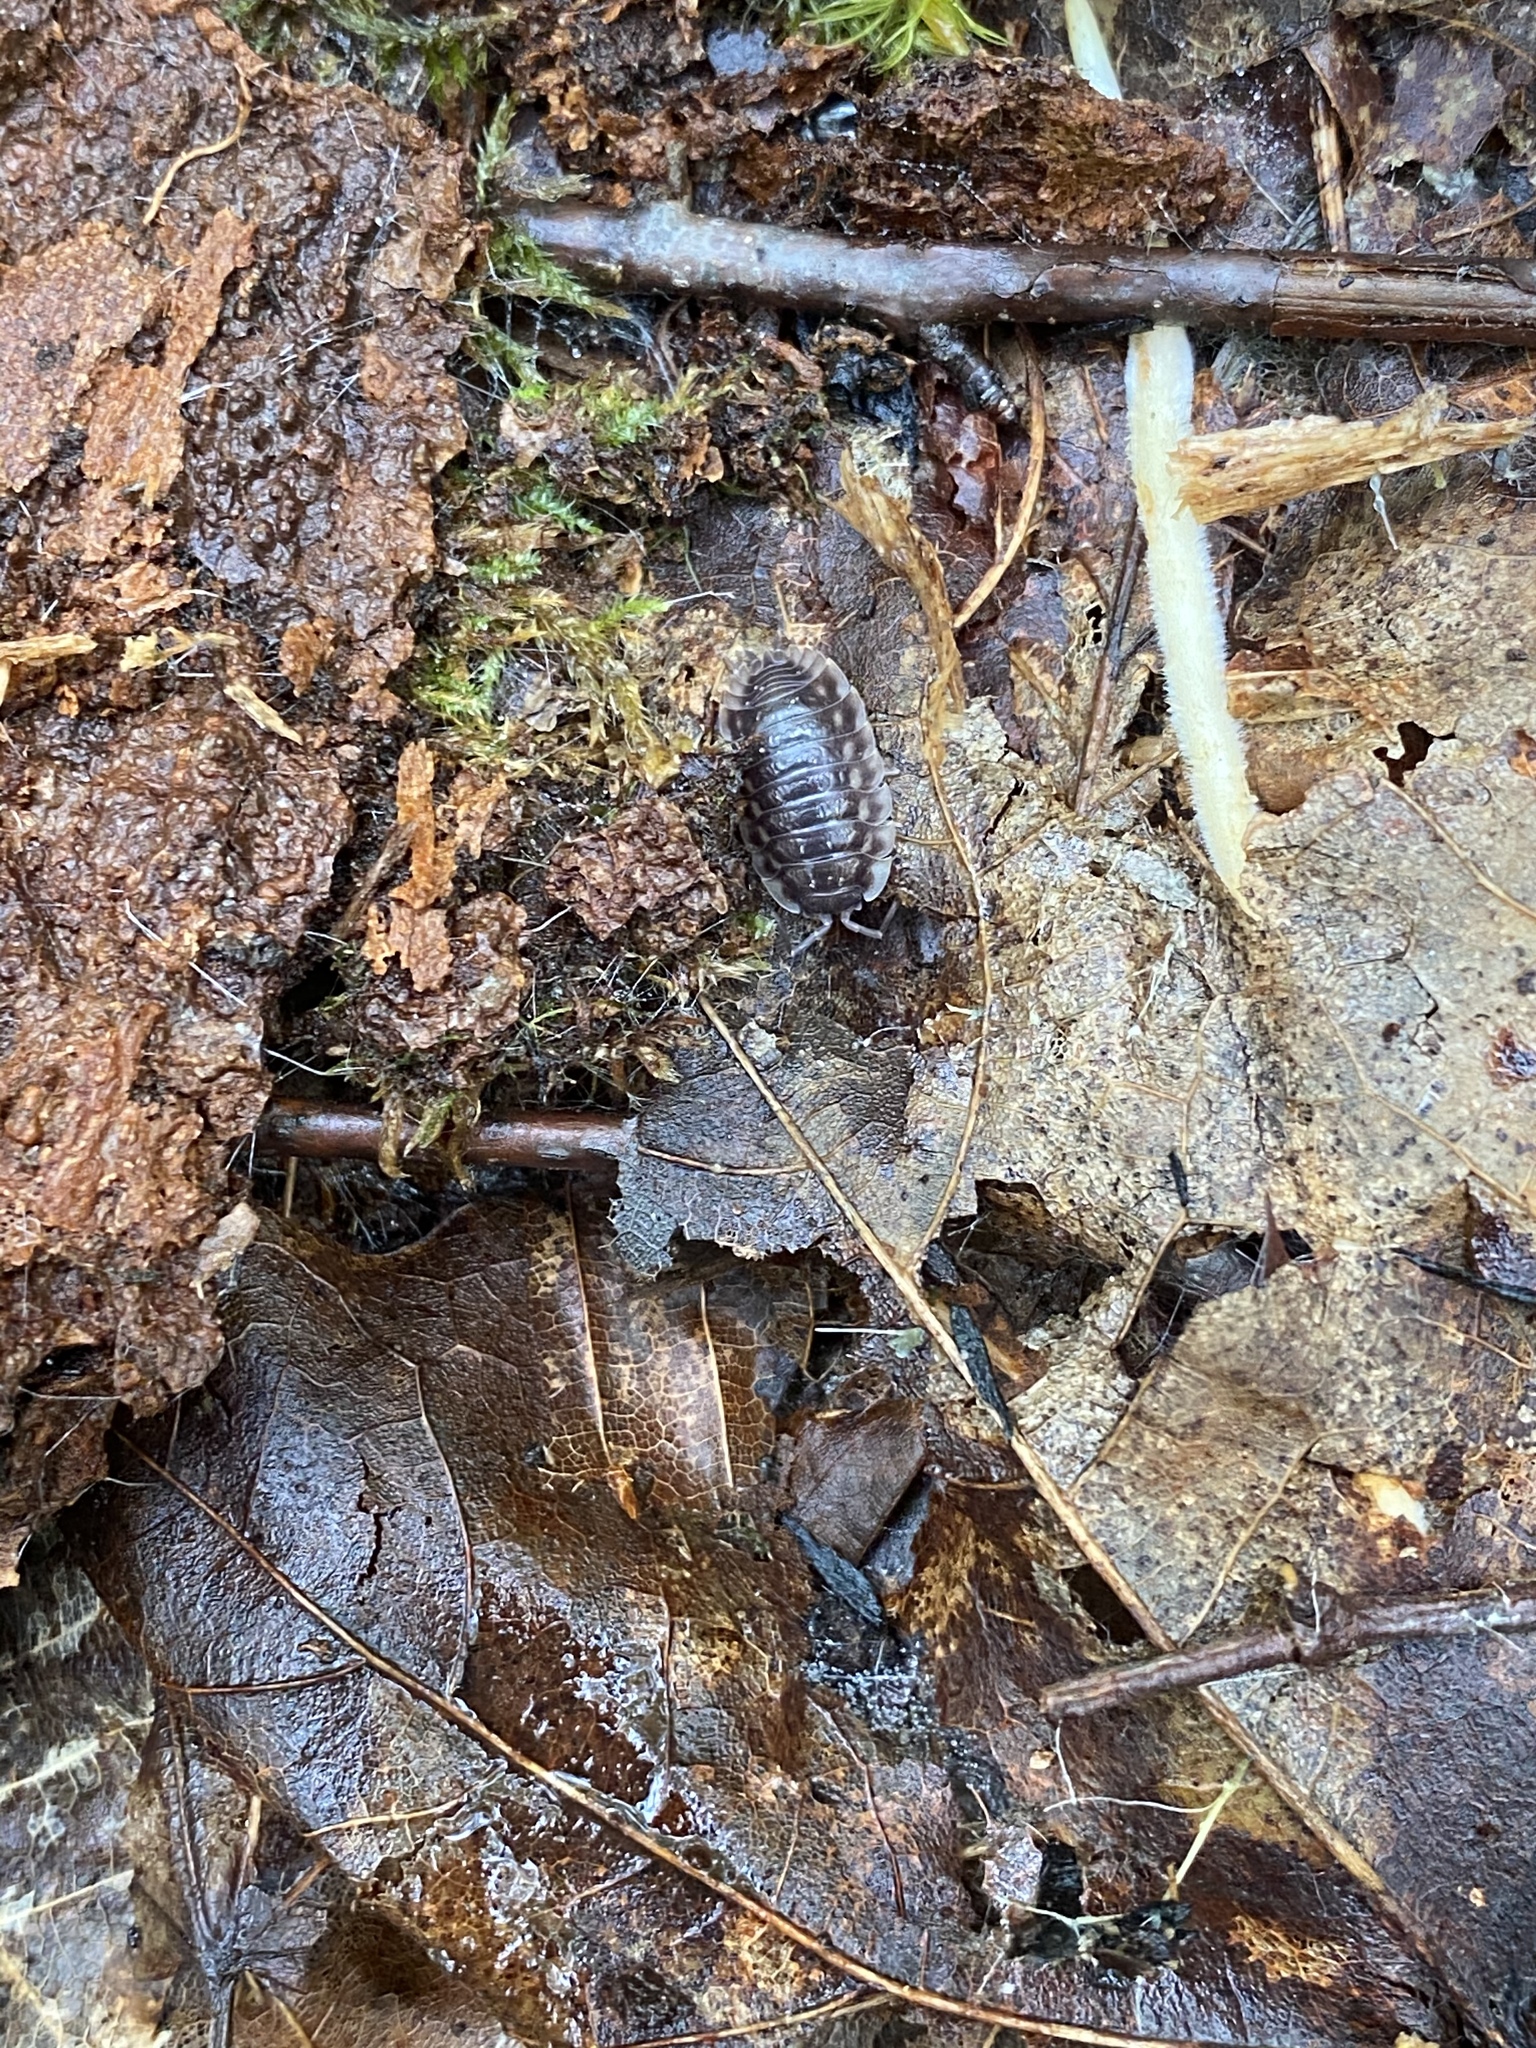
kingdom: Animalia
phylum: Arthropoda
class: Malacostraca
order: Isopoda
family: Oniscidae
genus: Oniscus
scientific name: Oniscus asellus
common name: Common shiny woodlouse
